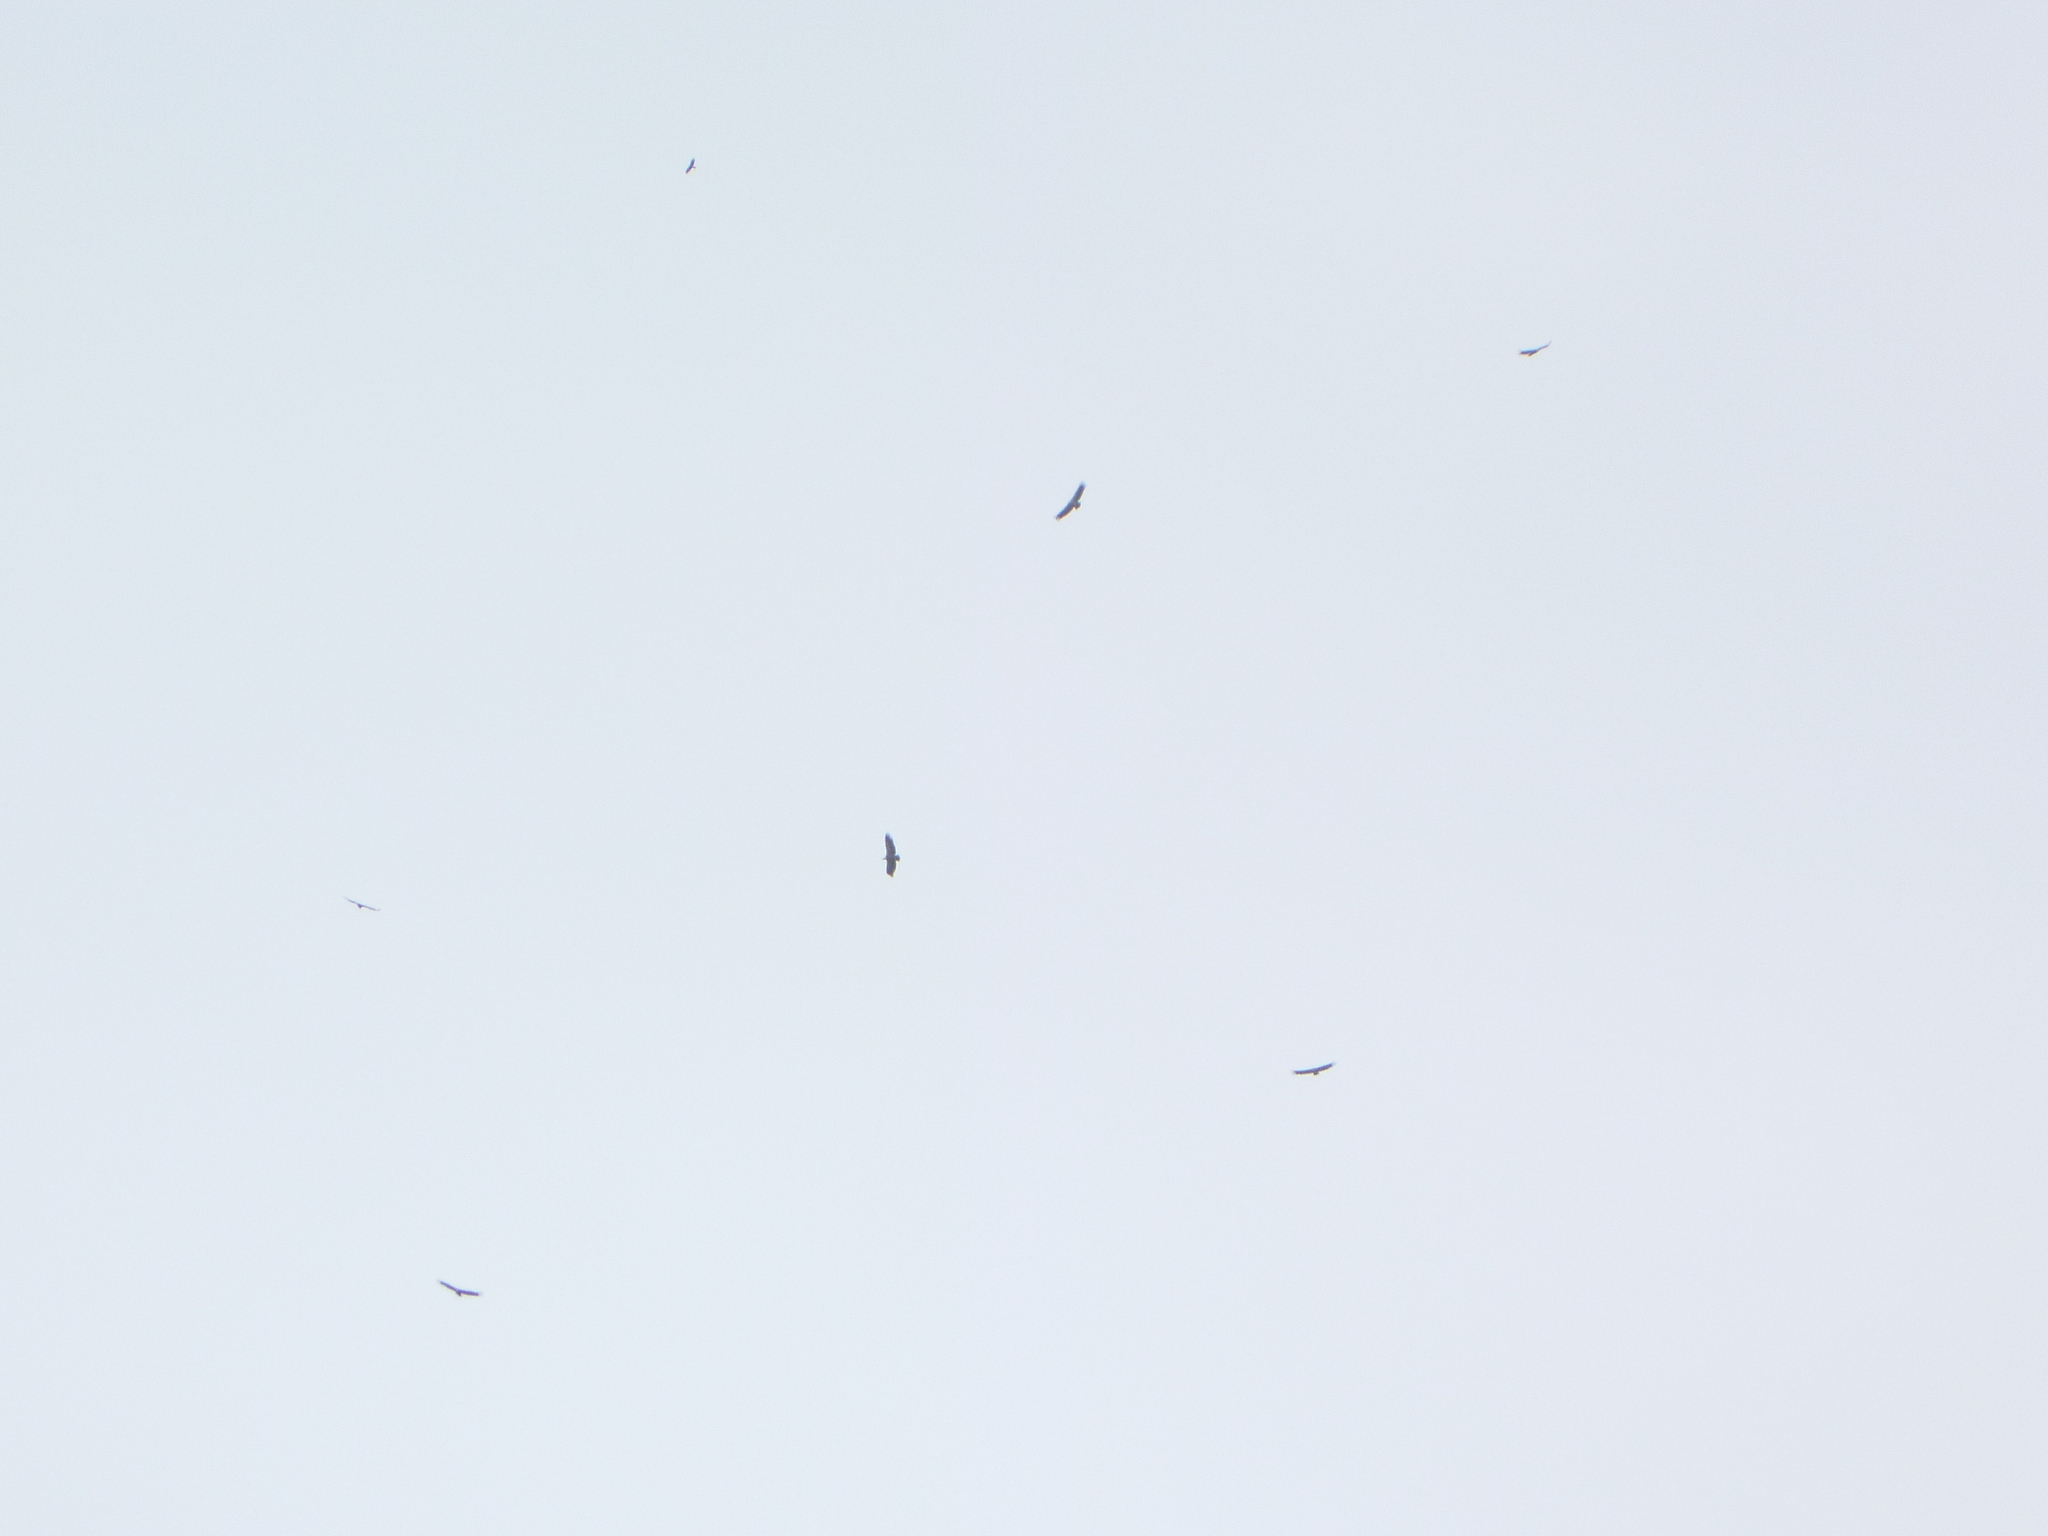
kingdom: Animalia
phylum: Chordata
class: Aves
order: Accipitriformes
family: Accipitridae
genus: Gyps
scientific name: Gyps fulvus
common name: Griffon vulture
